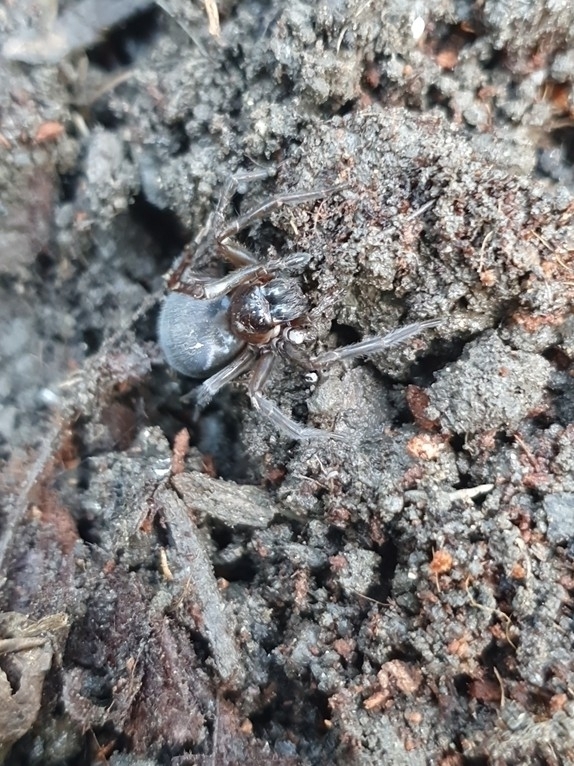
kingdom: Animalia
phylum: Arthropoda
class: Arachnida
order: Araneae
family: Amaurobiidae
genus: Amaurobius
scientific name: Amaurobius ferox
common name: Black laceweaver
